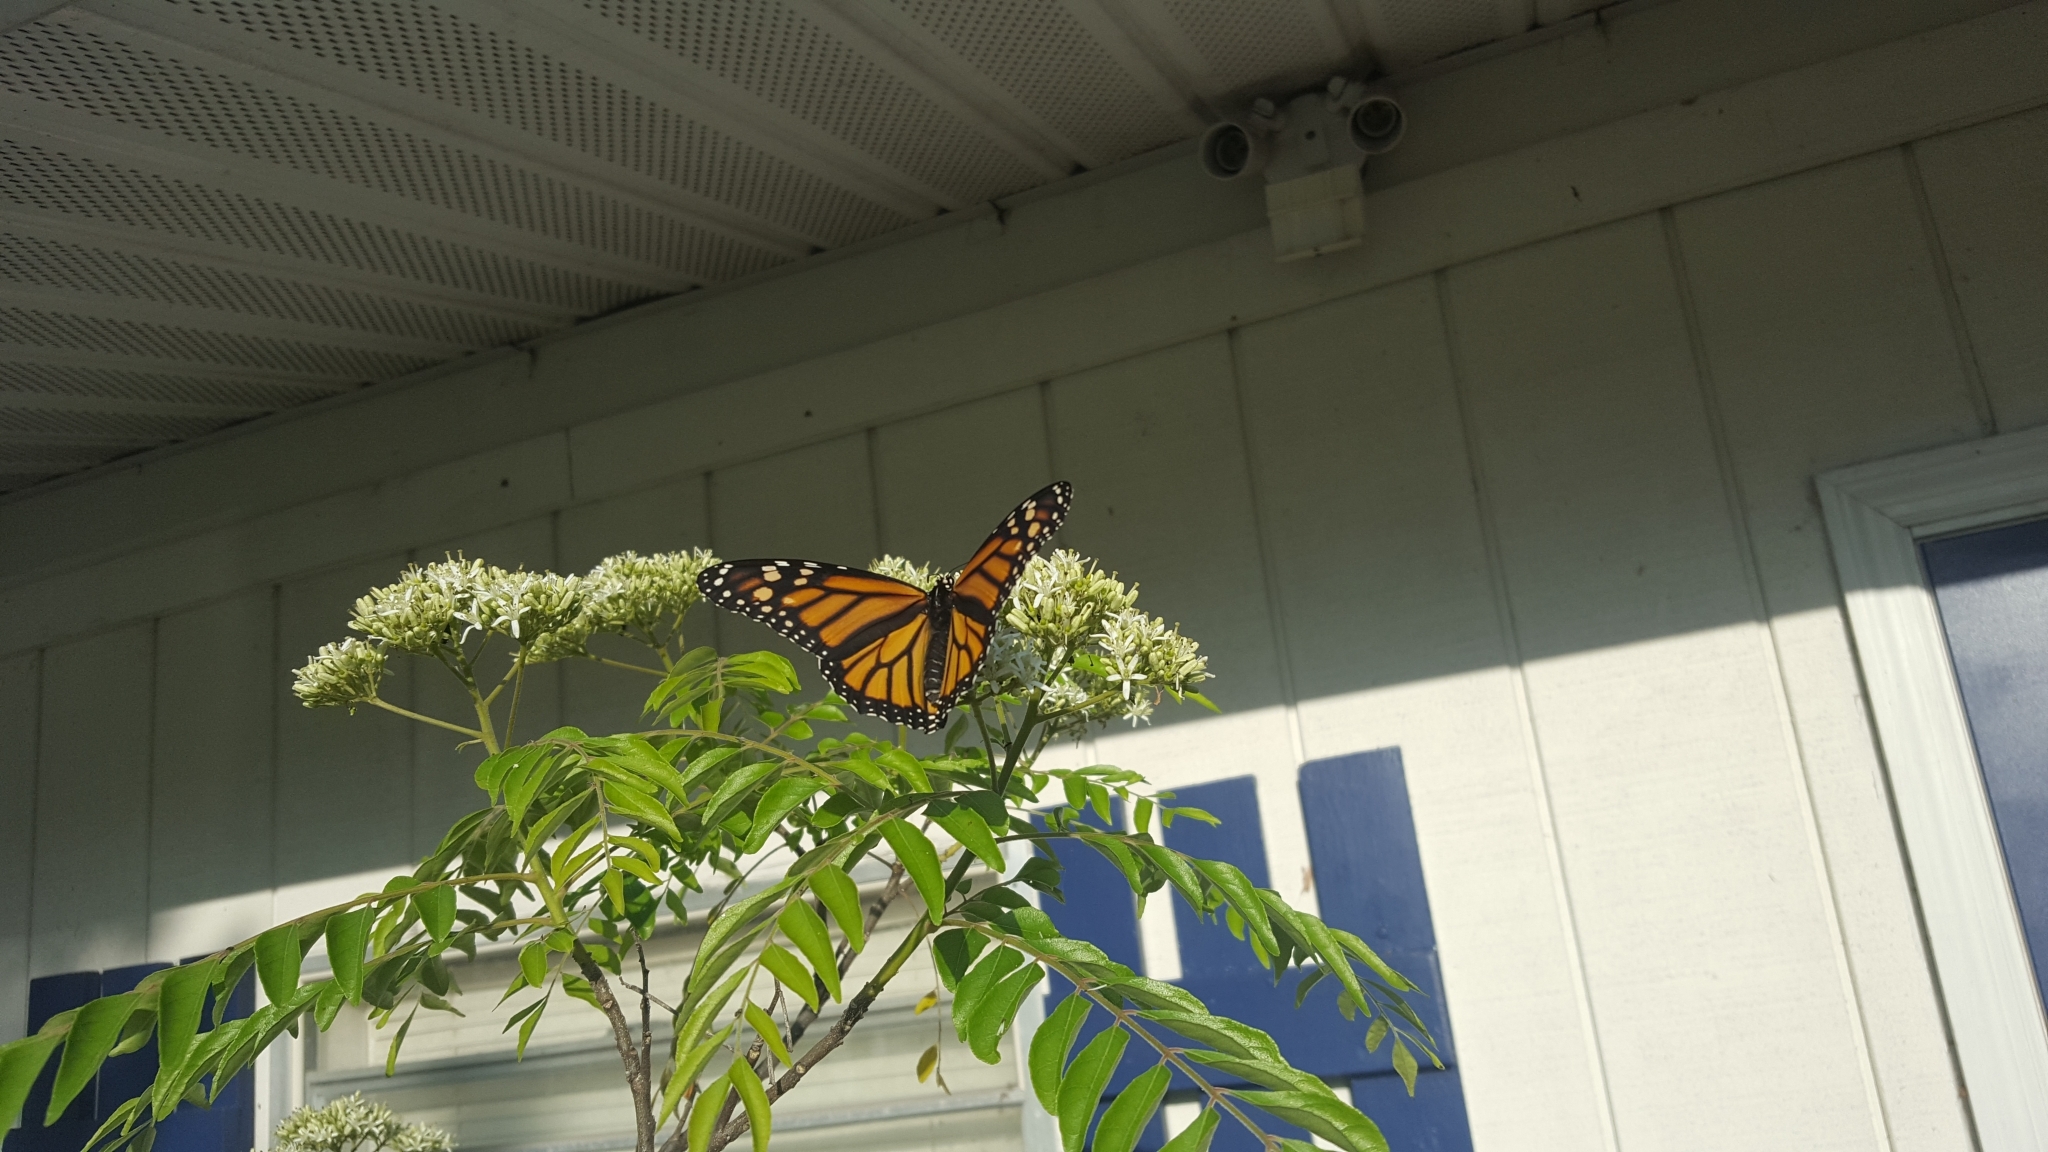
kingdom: Animalia
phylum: Arthropoda
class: Insecta
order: Lepidoptera
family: Nymphalidae
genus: Danaus
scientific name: Danaus plexippus
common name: Monarch
